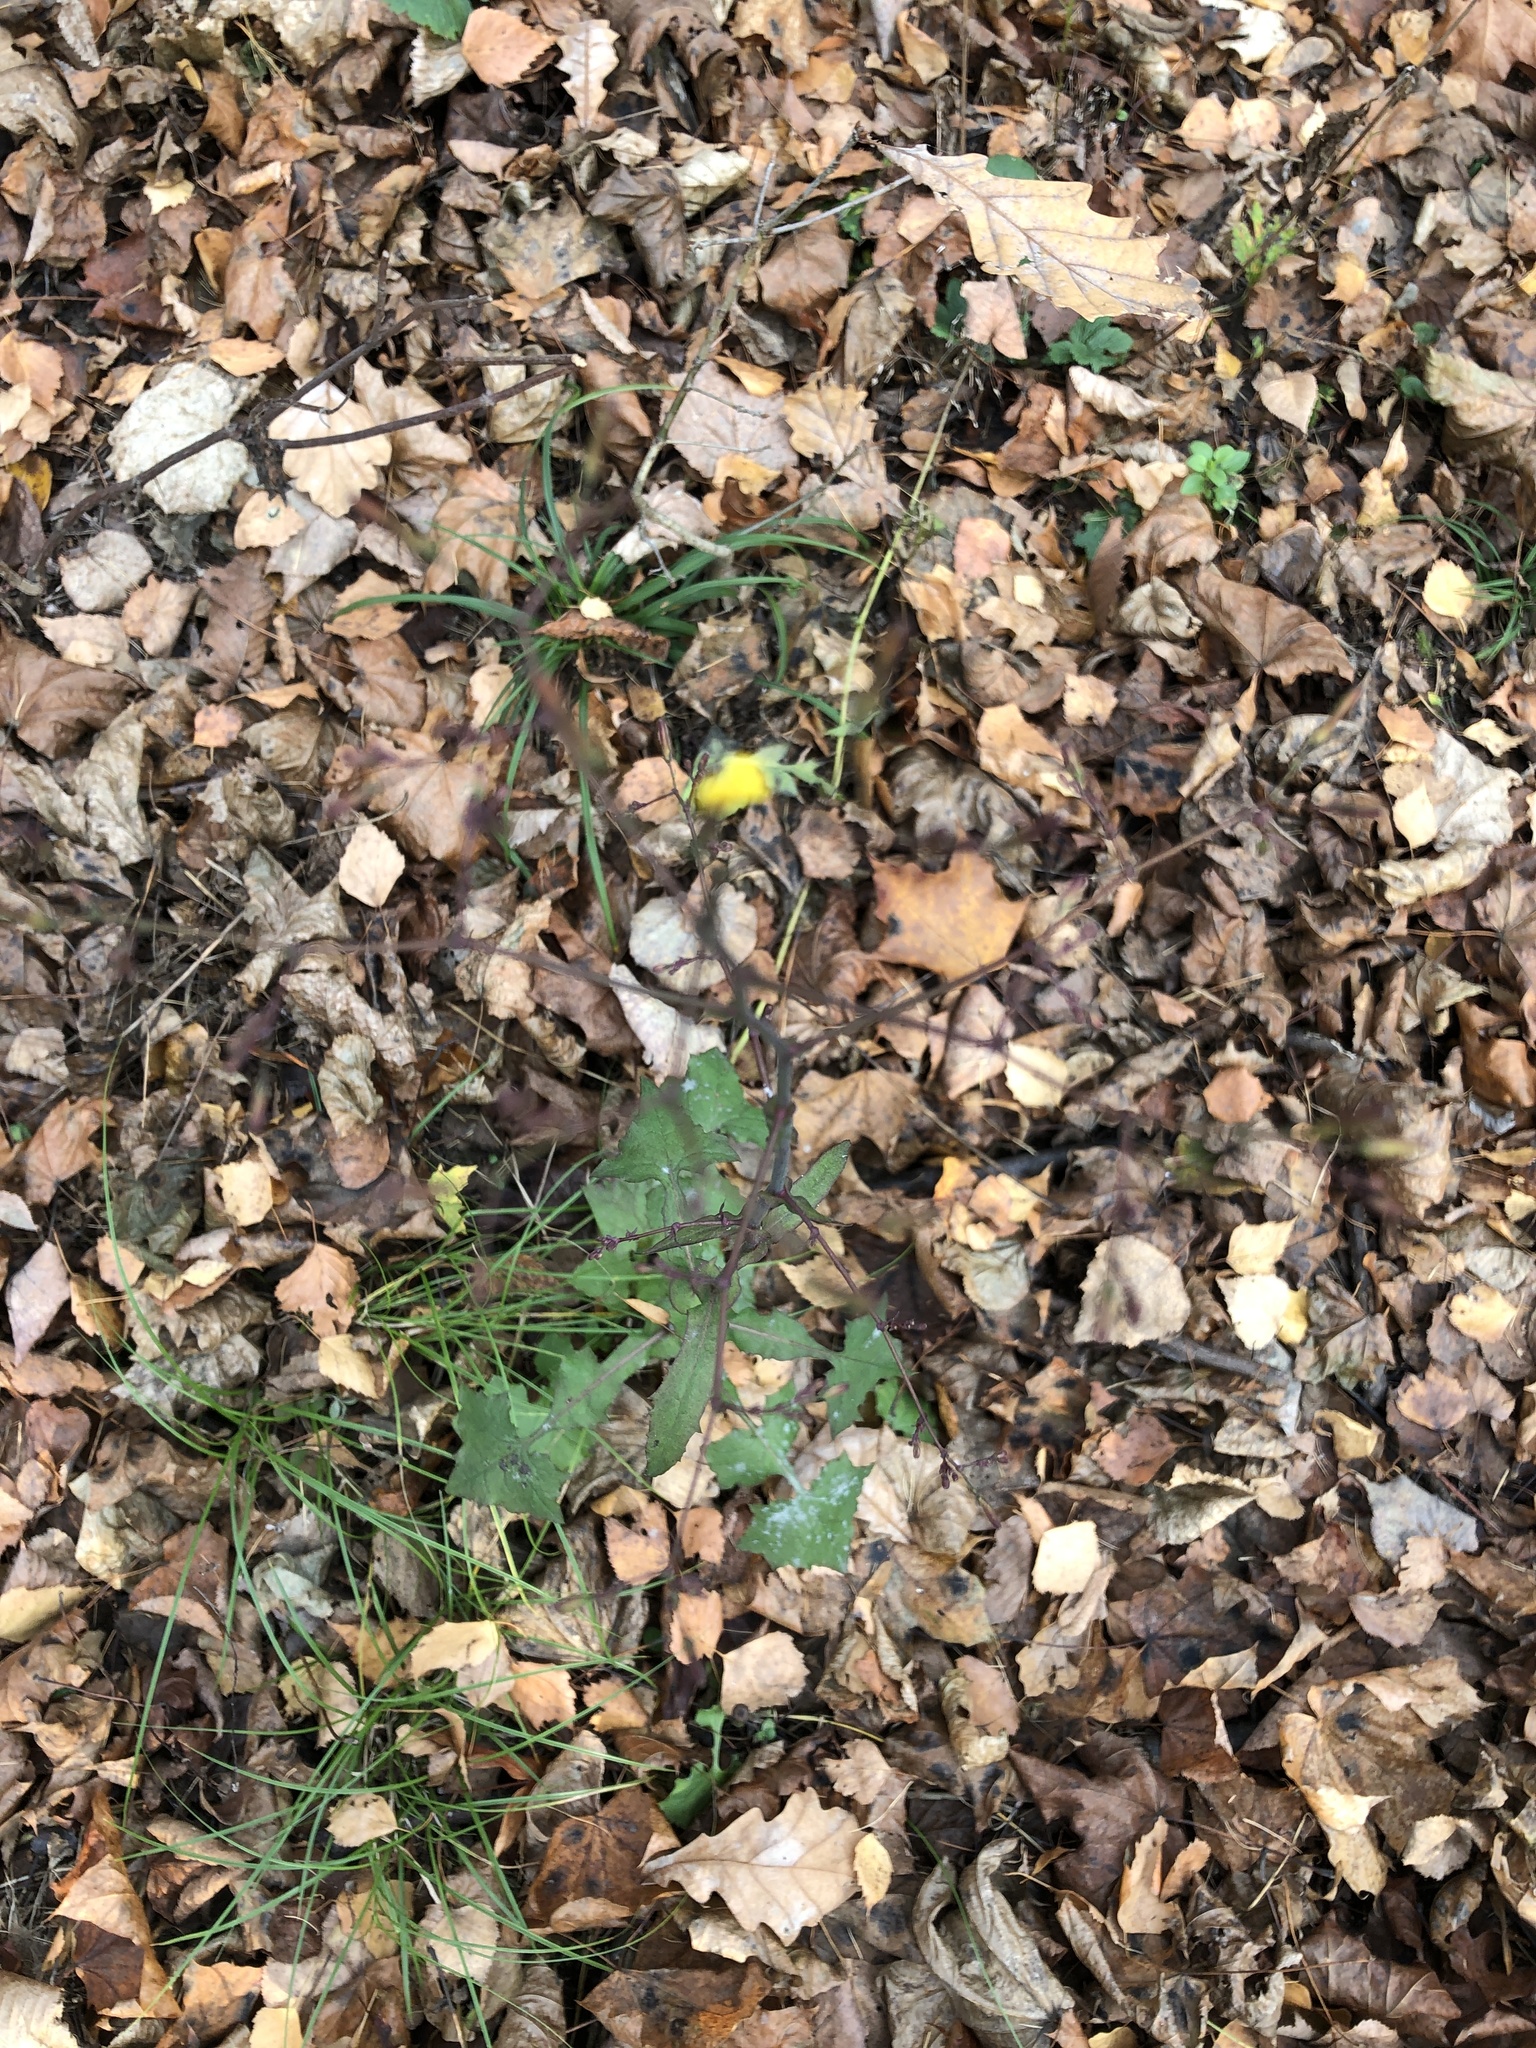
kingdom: Plantae
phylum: Tracheophyta
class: Magnoliopsida
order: Asterales
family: Asteraceae
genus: Mycelis
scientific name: Mycelis muralis
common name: Wall lettuce
